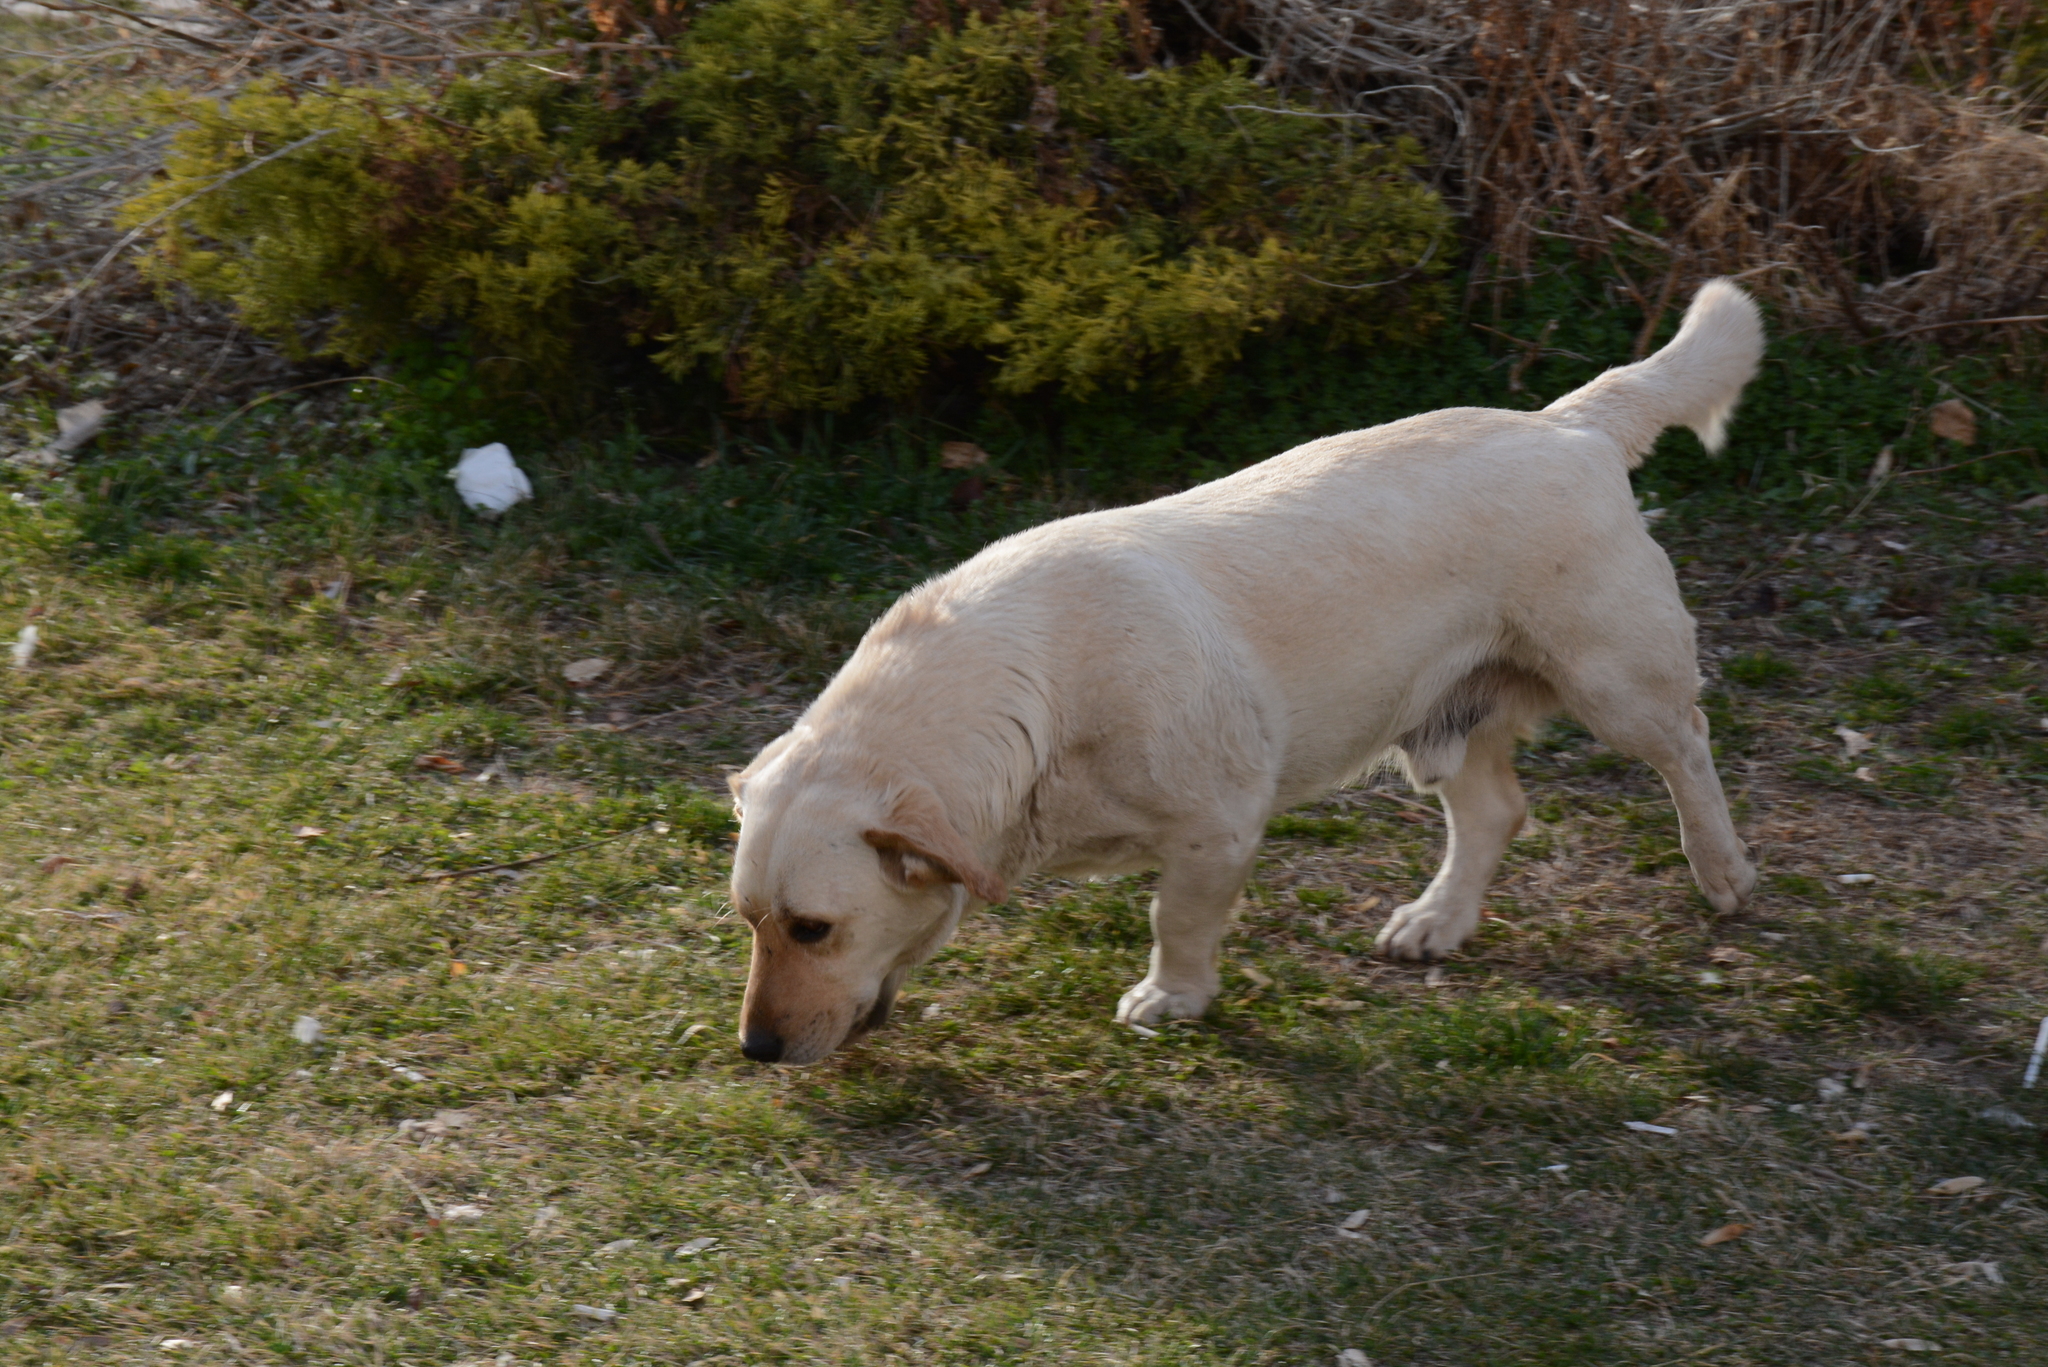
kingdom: Animalia
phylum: Chordata
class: Mammalia
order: Carnivora
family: Canidae
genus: Canis
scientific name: Canis lupus
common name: Gray wolf
